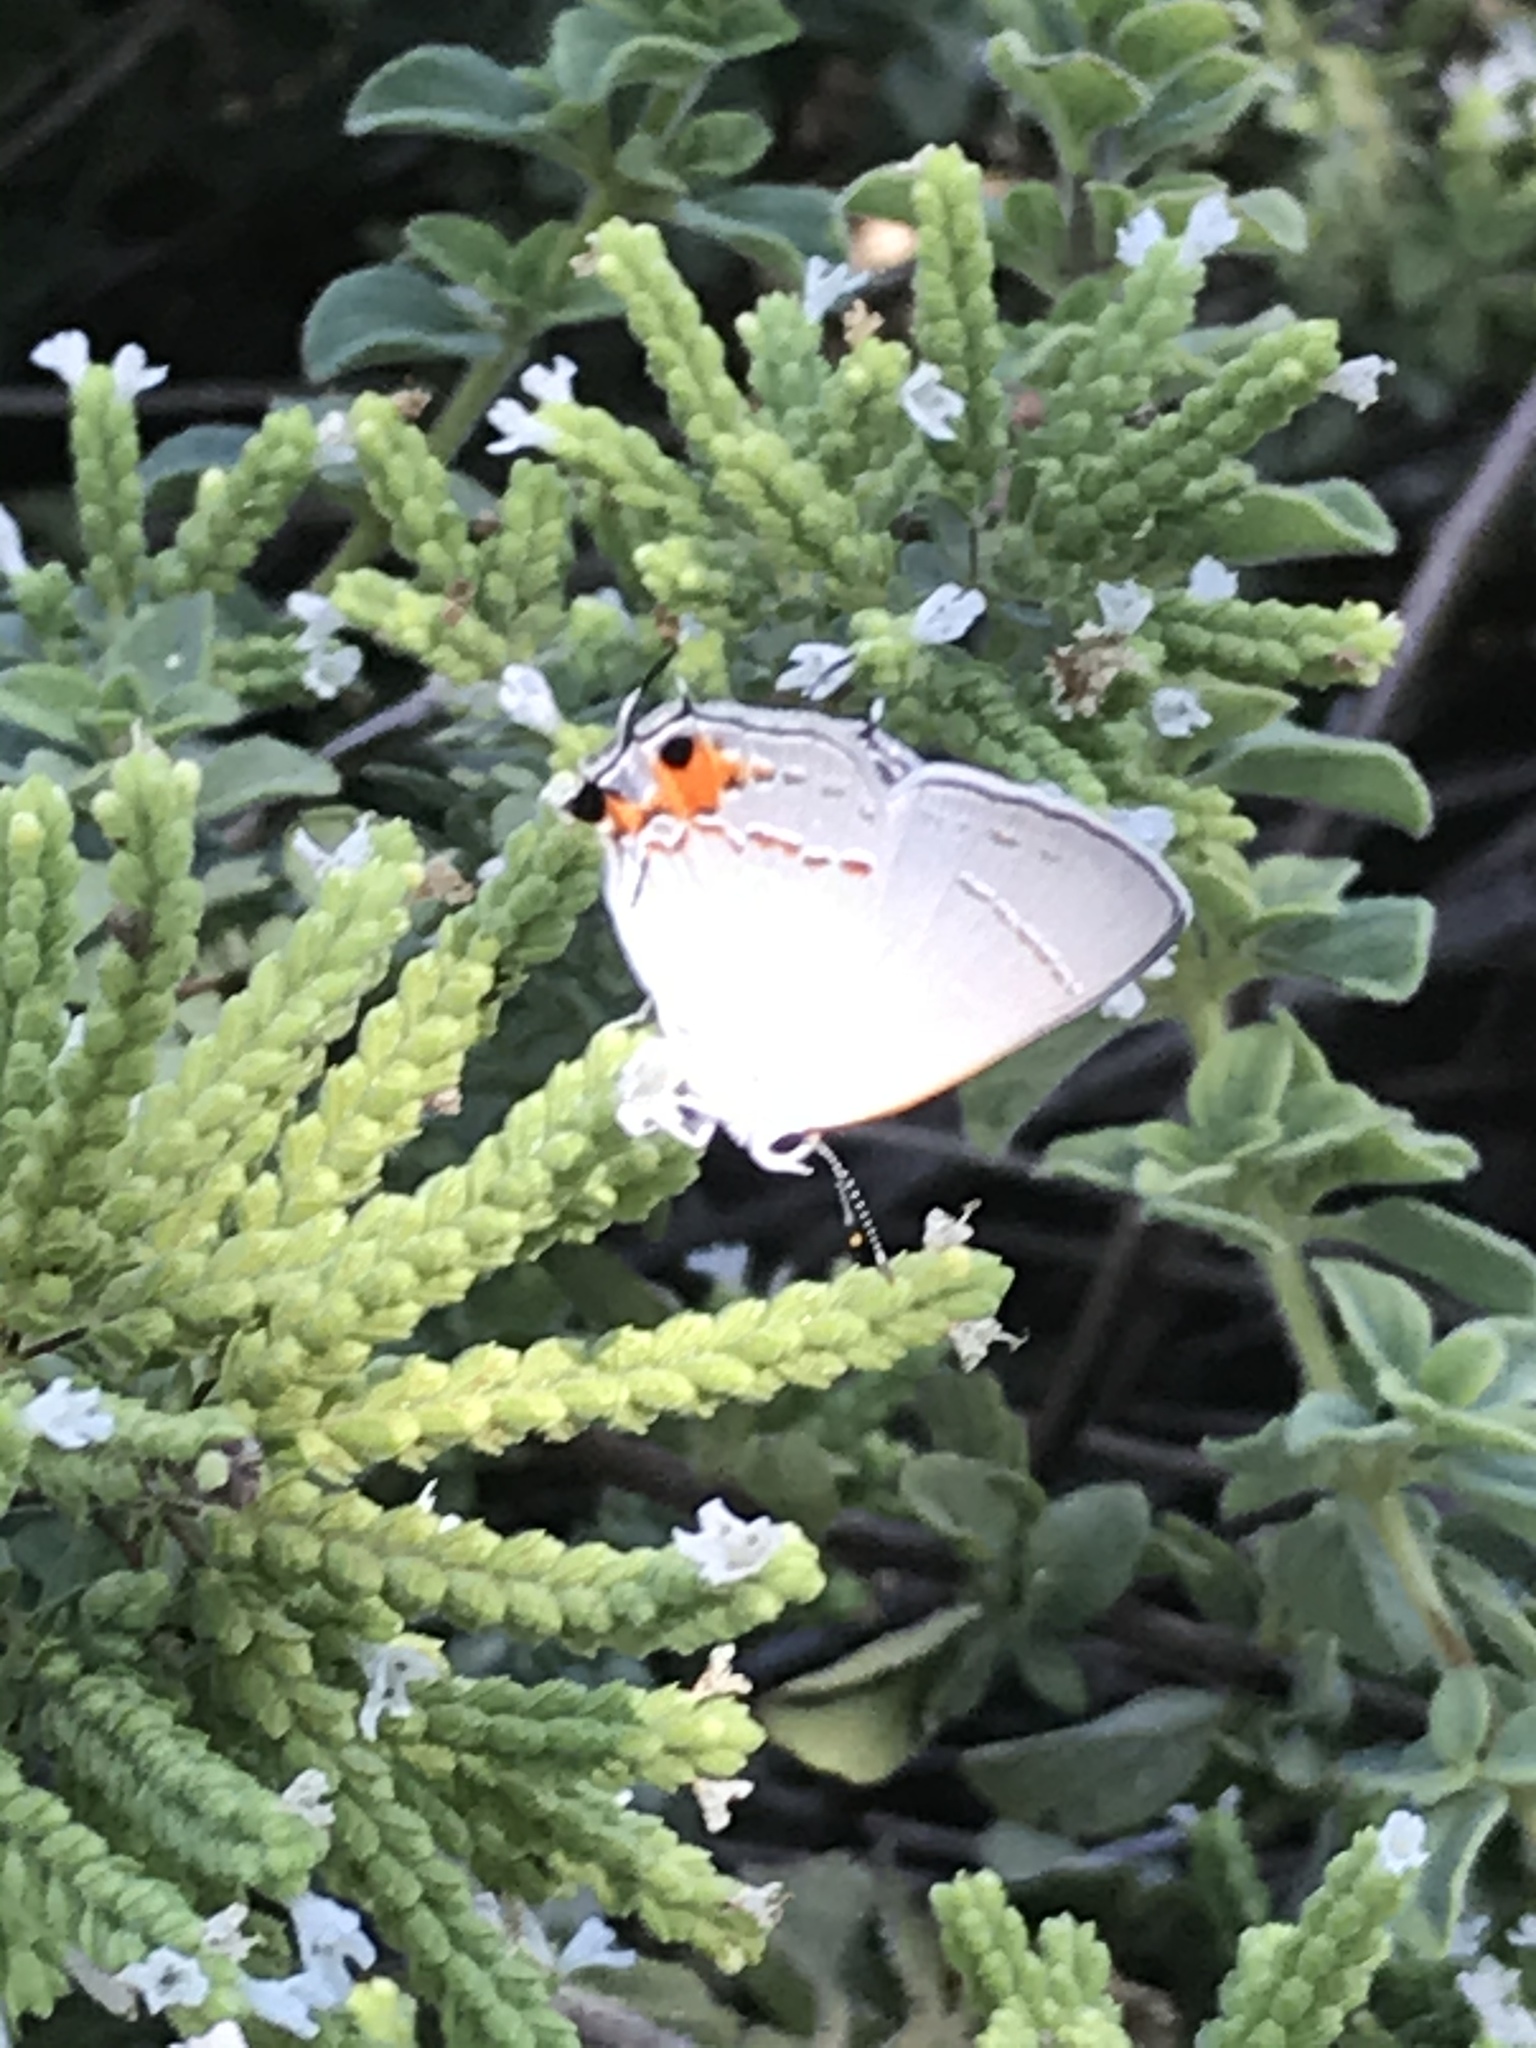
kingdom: Animalia
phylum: Arthropoda
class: Insecta
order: Lepidoptera
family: Lycaenidae
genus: Strymon
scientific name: Strymon melinus
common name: Gray hairstreak
